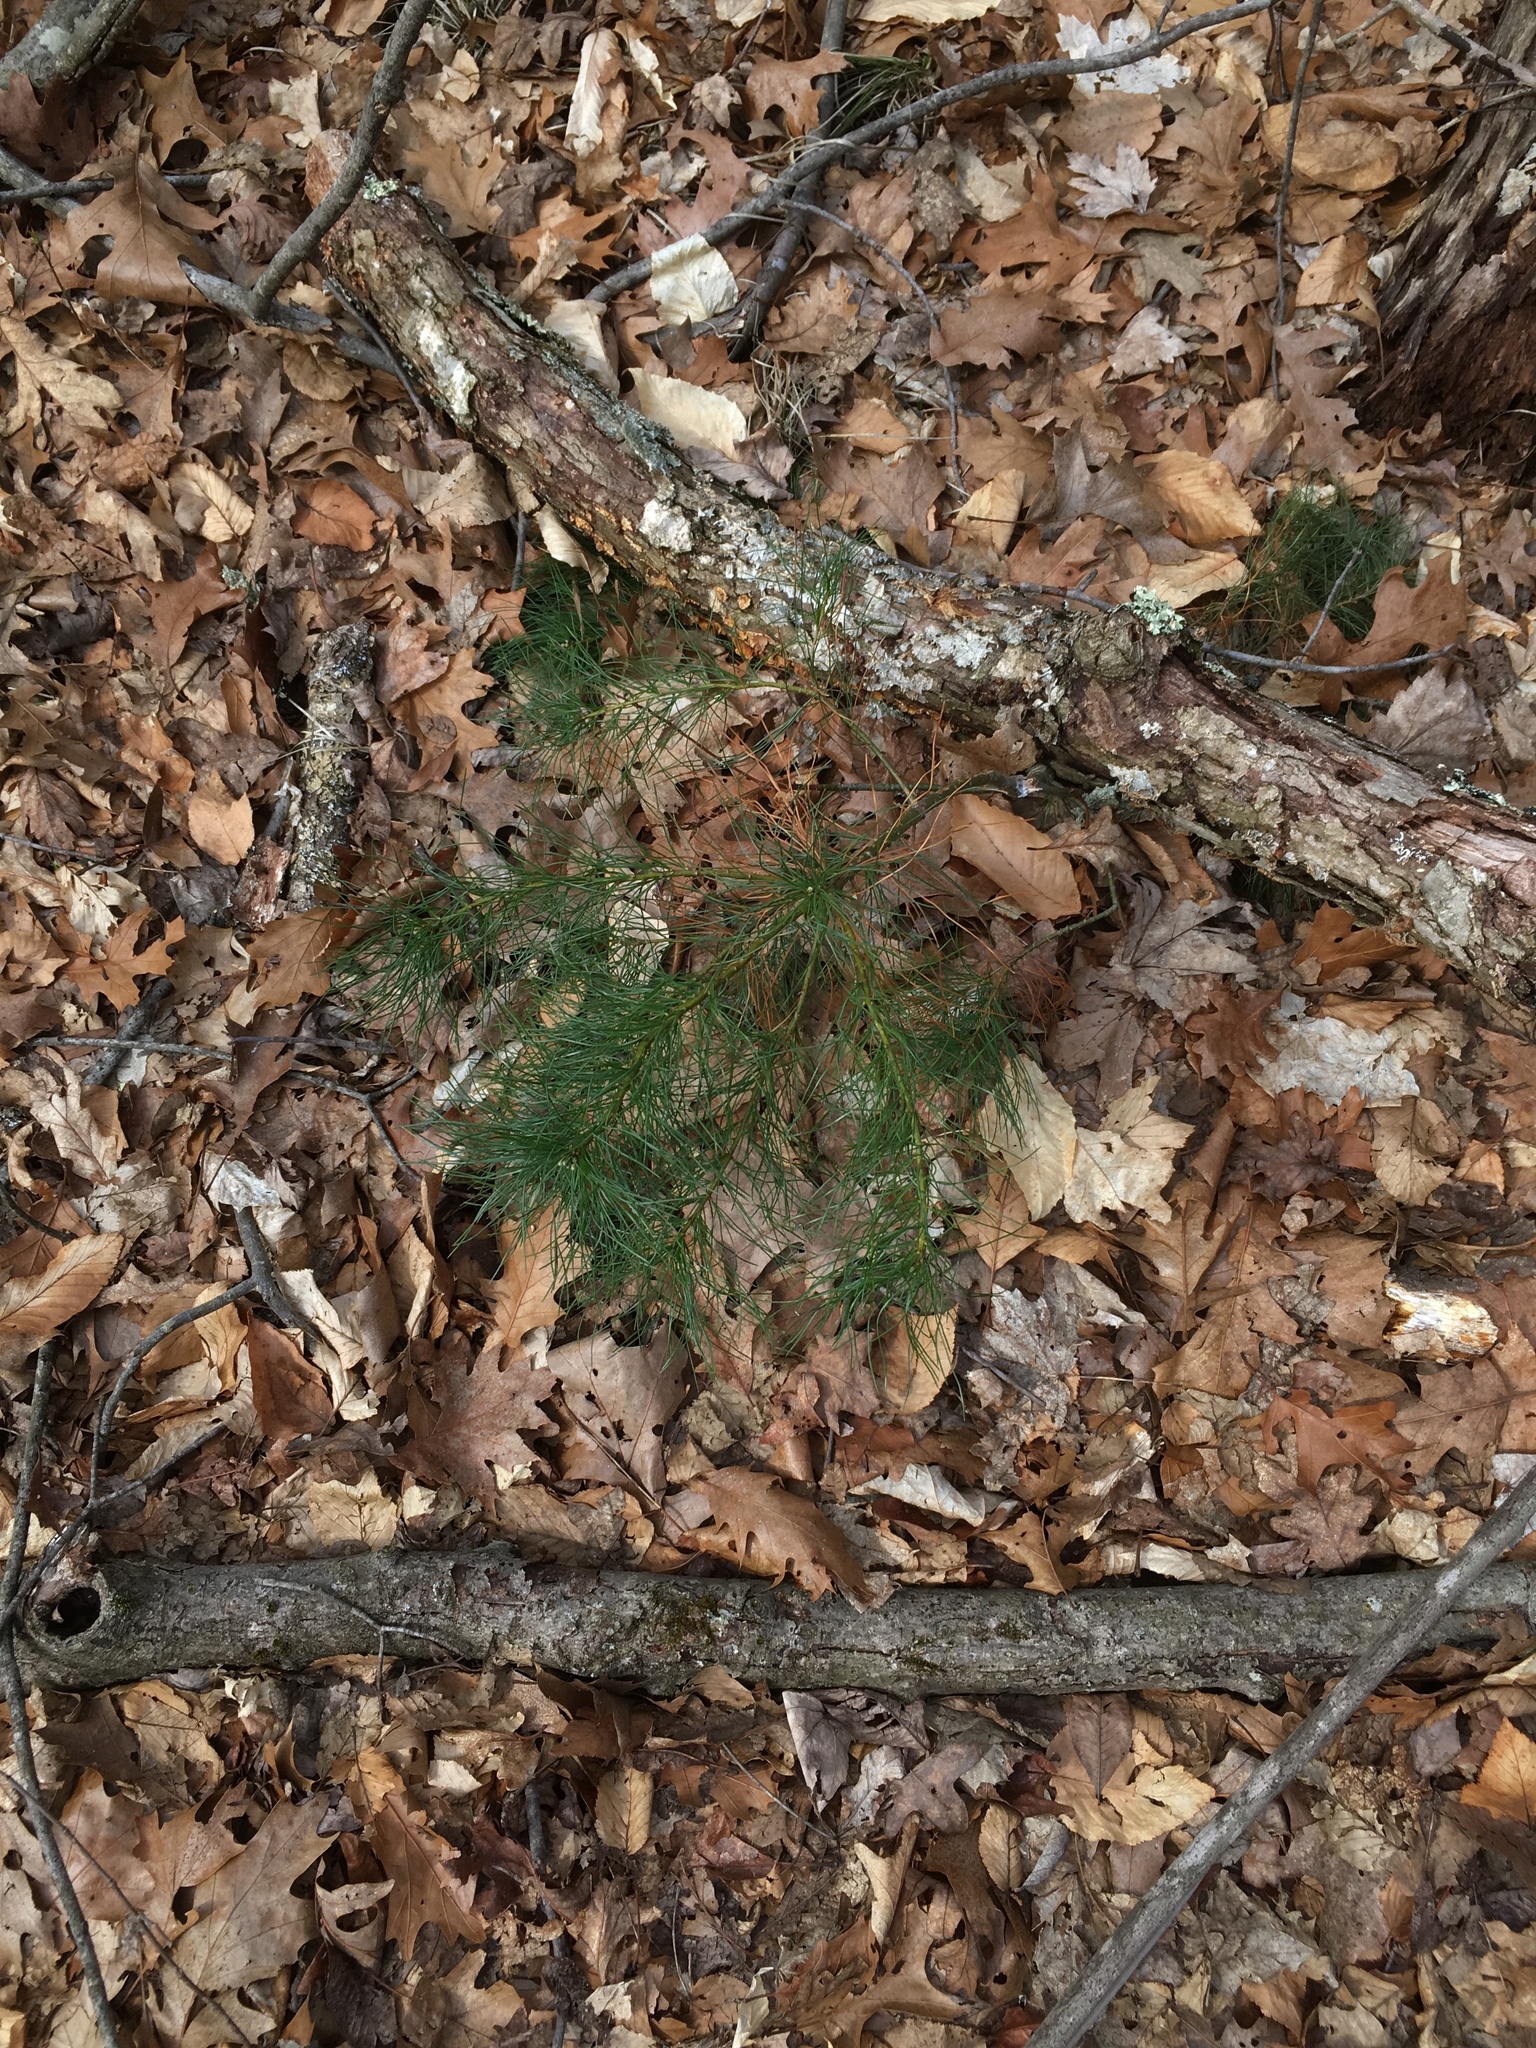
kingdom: Plantae
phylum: Tracheophyta
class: Pinopsida
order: Pinales
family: Pinaceae
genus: Pinus
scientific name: Pinus strobus
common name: Weymouth pine
